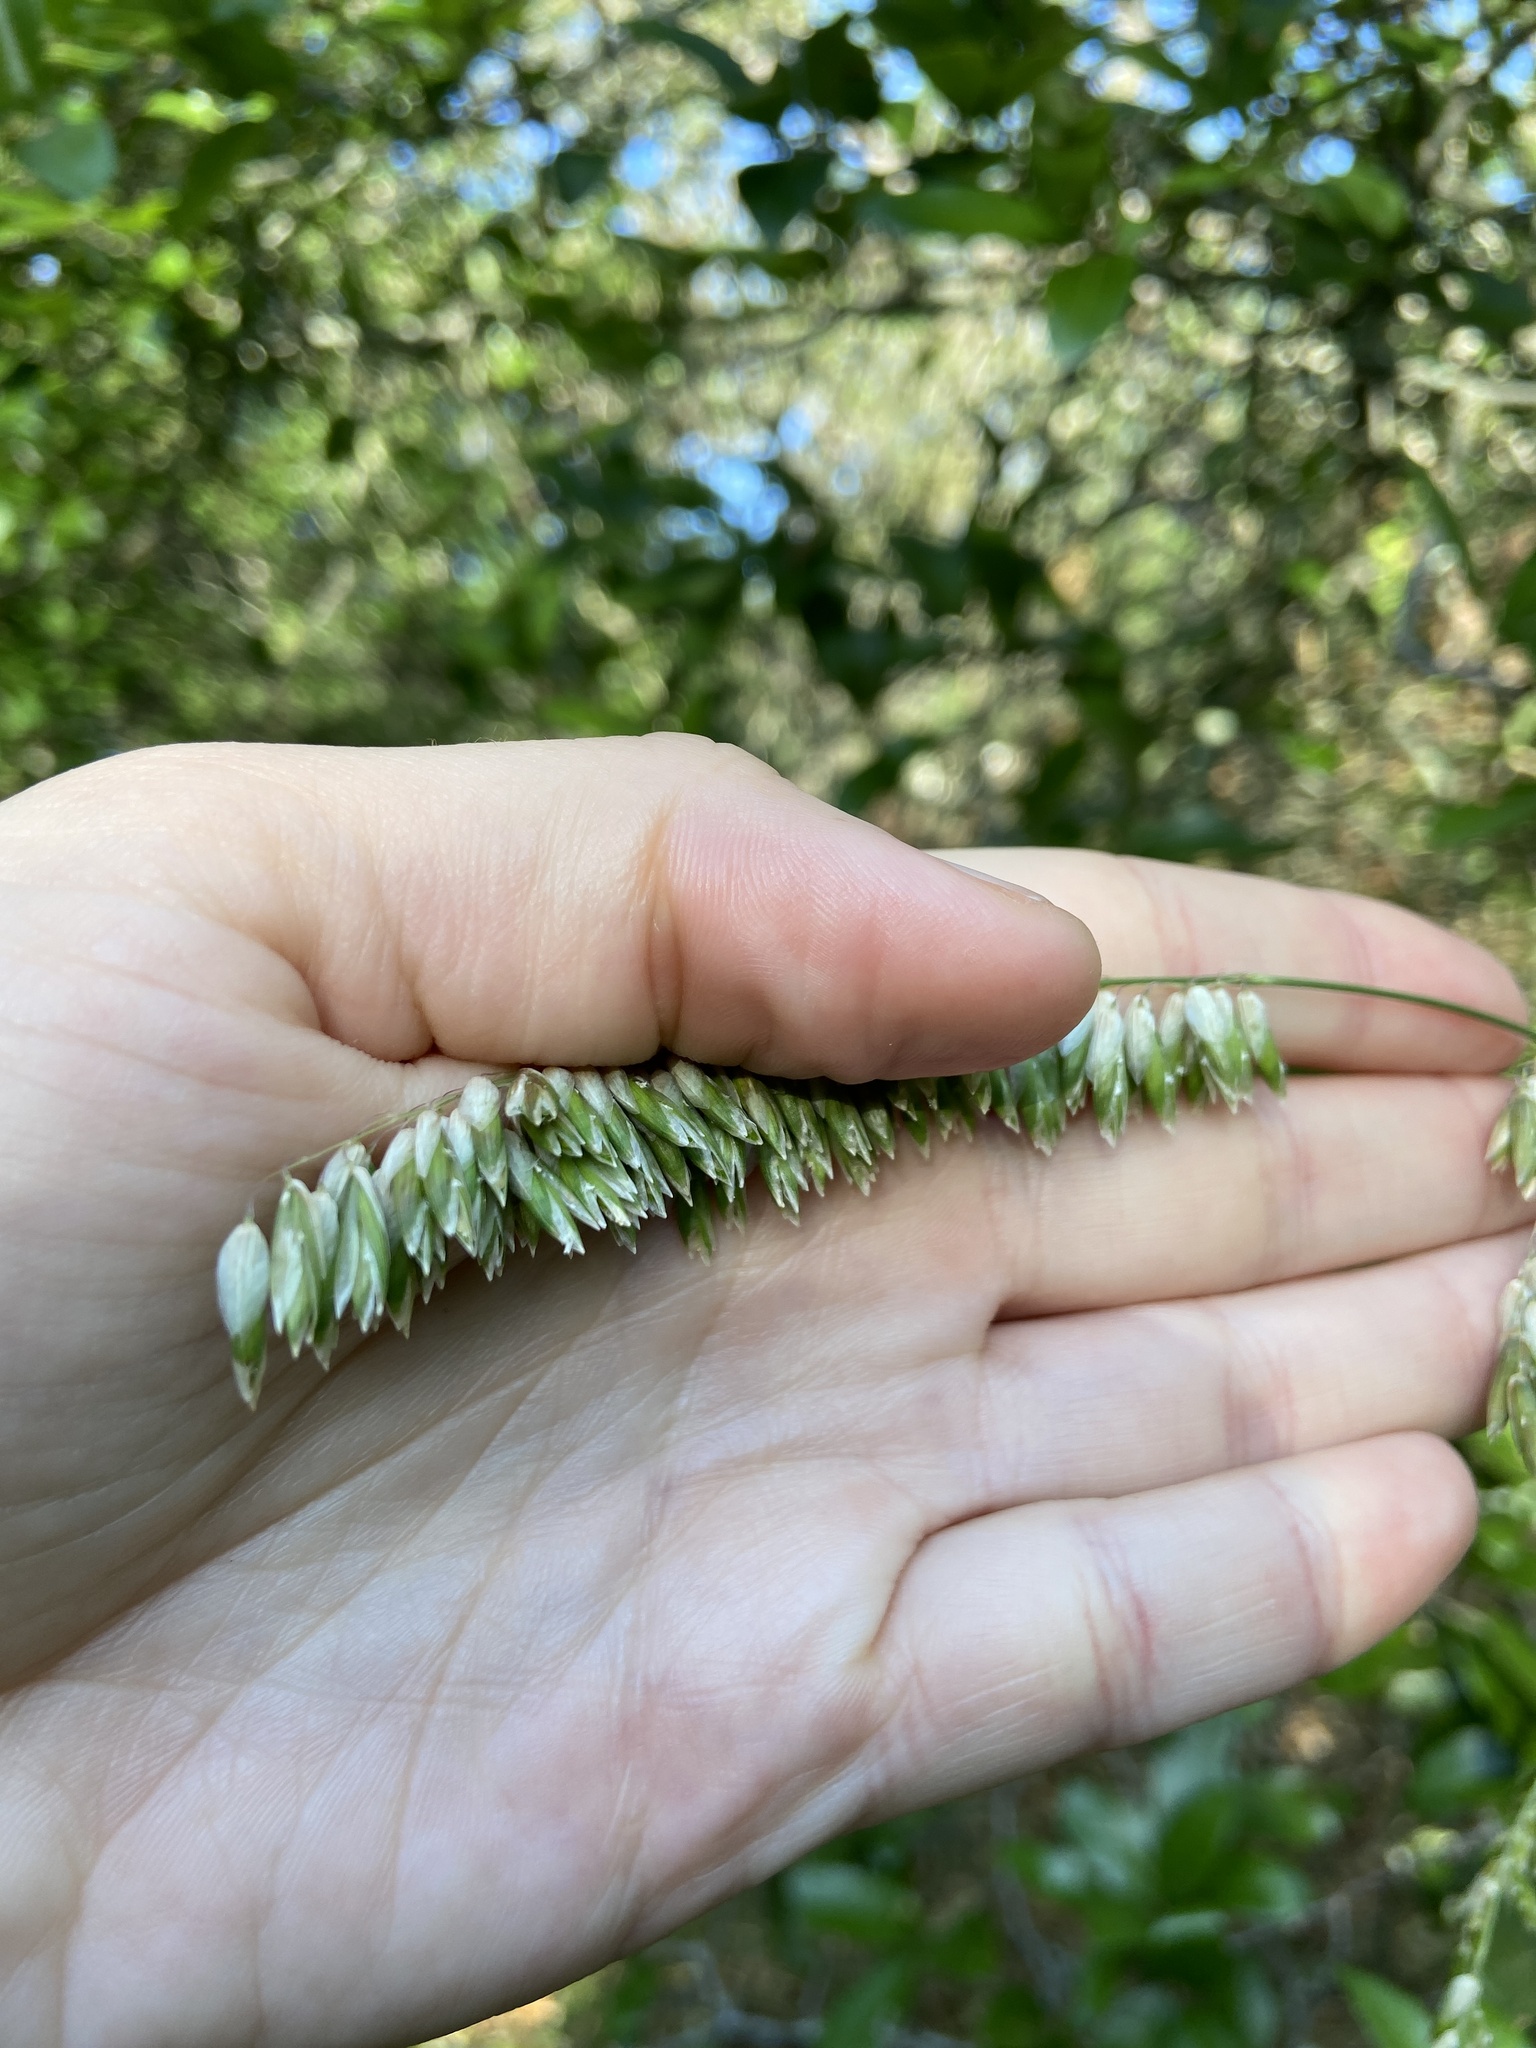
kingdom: Plantae
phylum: Tracheophyta
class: Liliopsida
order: Poales
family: Poaceae
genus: Melica
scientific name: Melica nitens
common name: Three-flower melic
